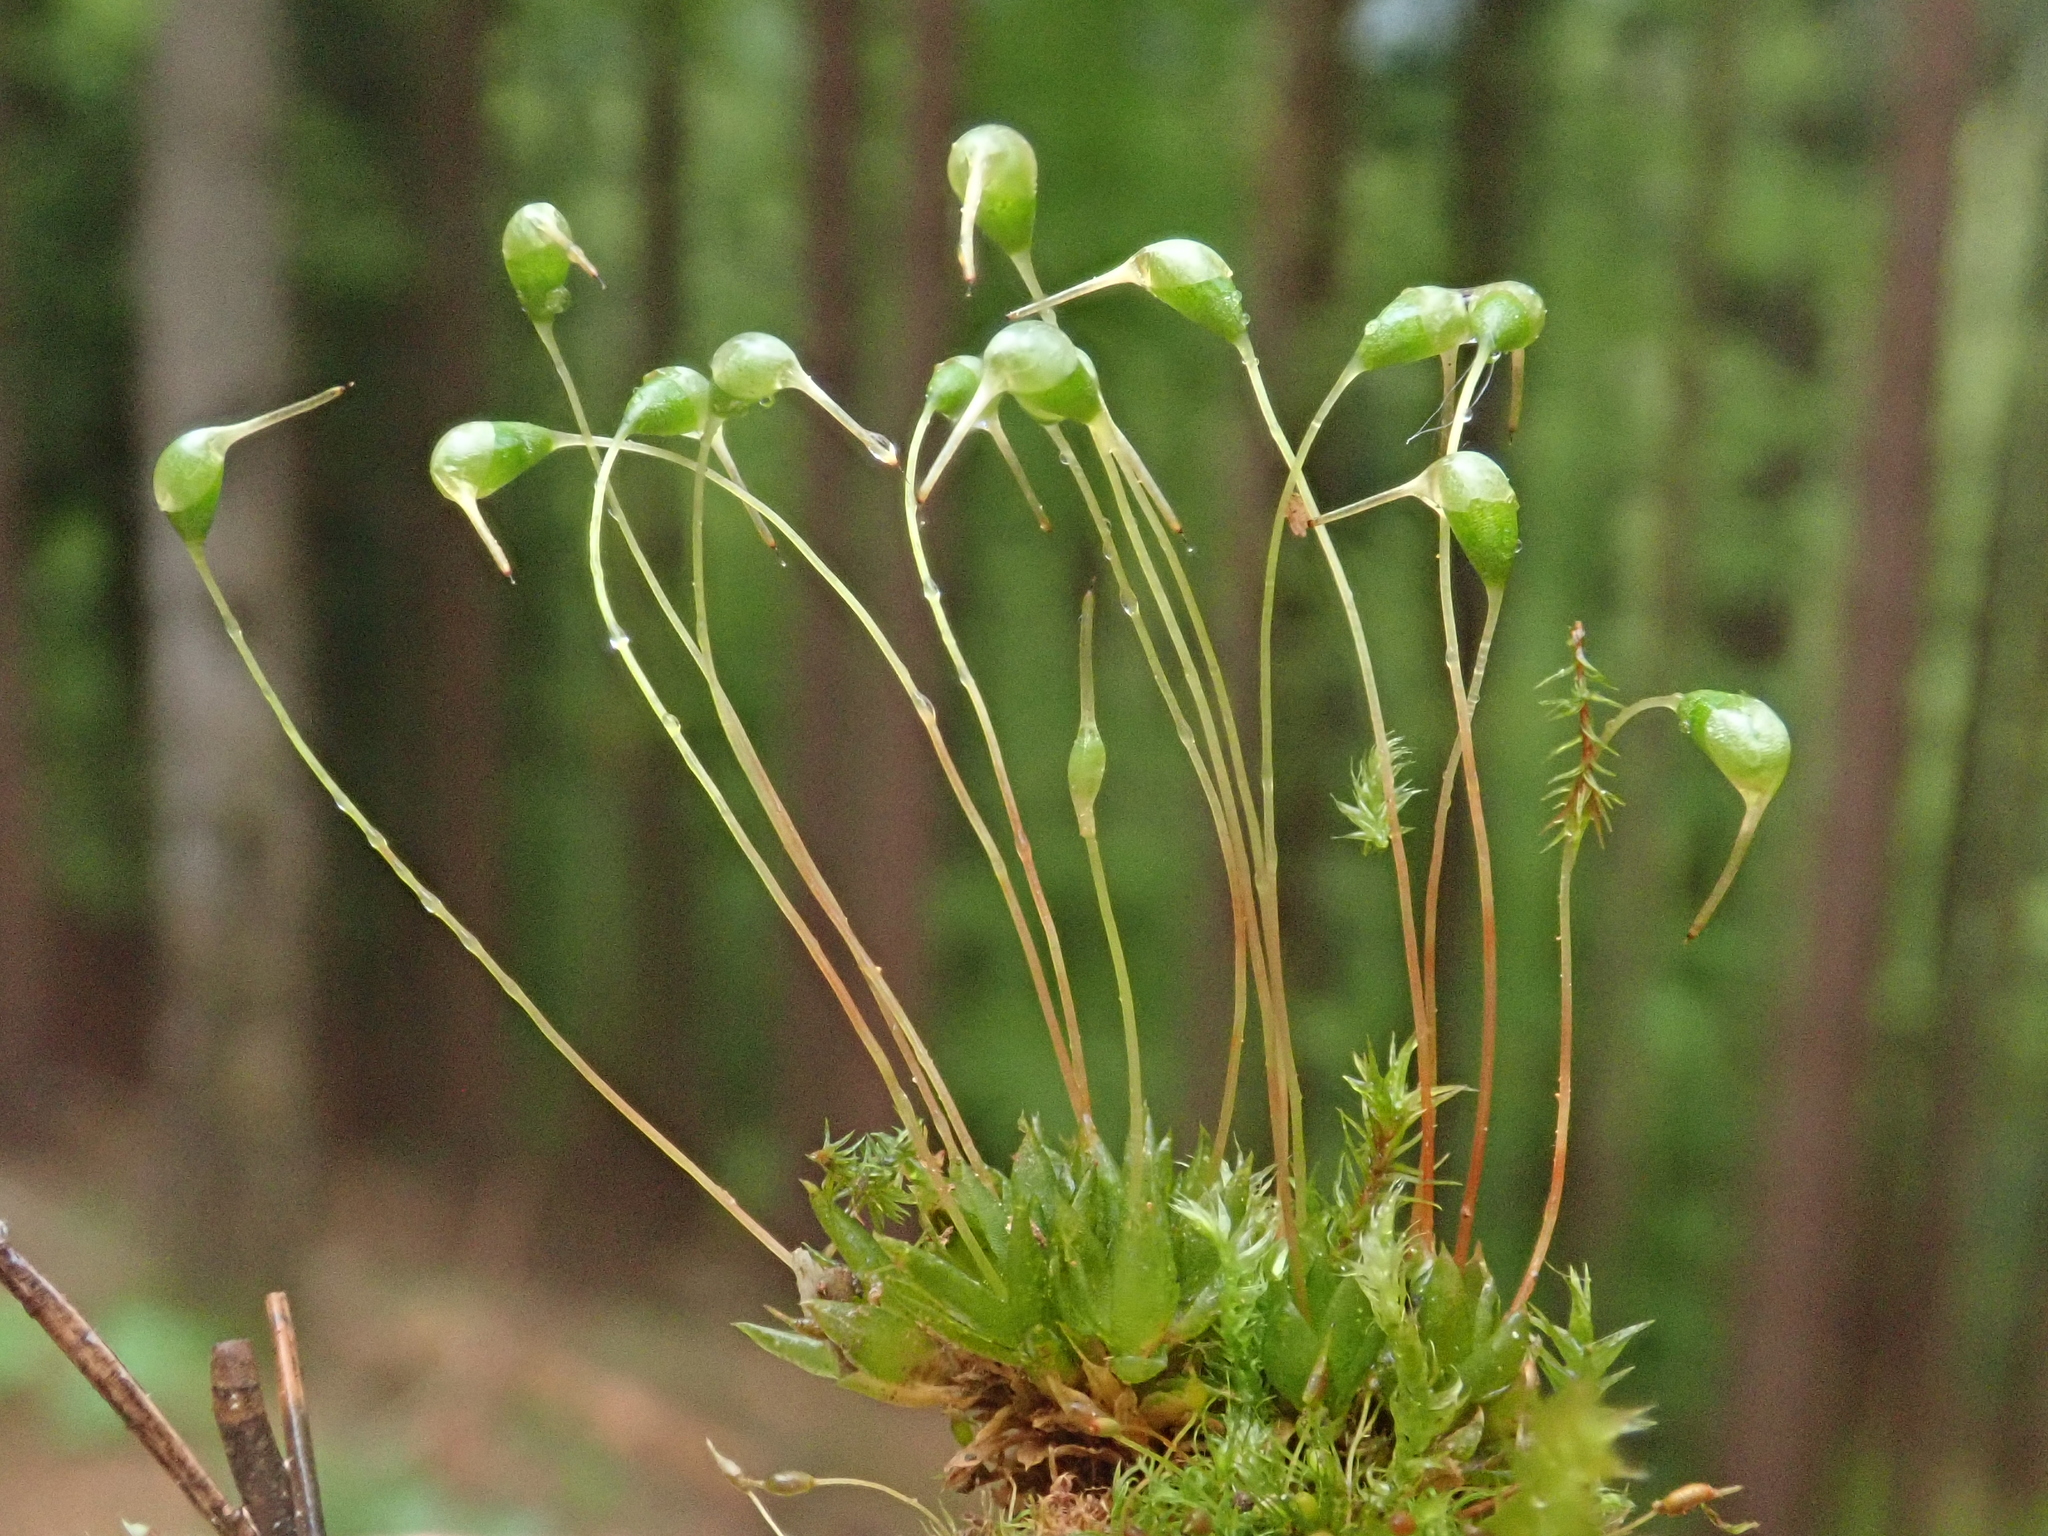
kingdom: Plantae
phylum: Bryophyta
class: Bryopsida
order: Funariales
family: Funariaceae
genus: Funaria
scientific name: Funaria hygrometrica
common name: Common cord moss
